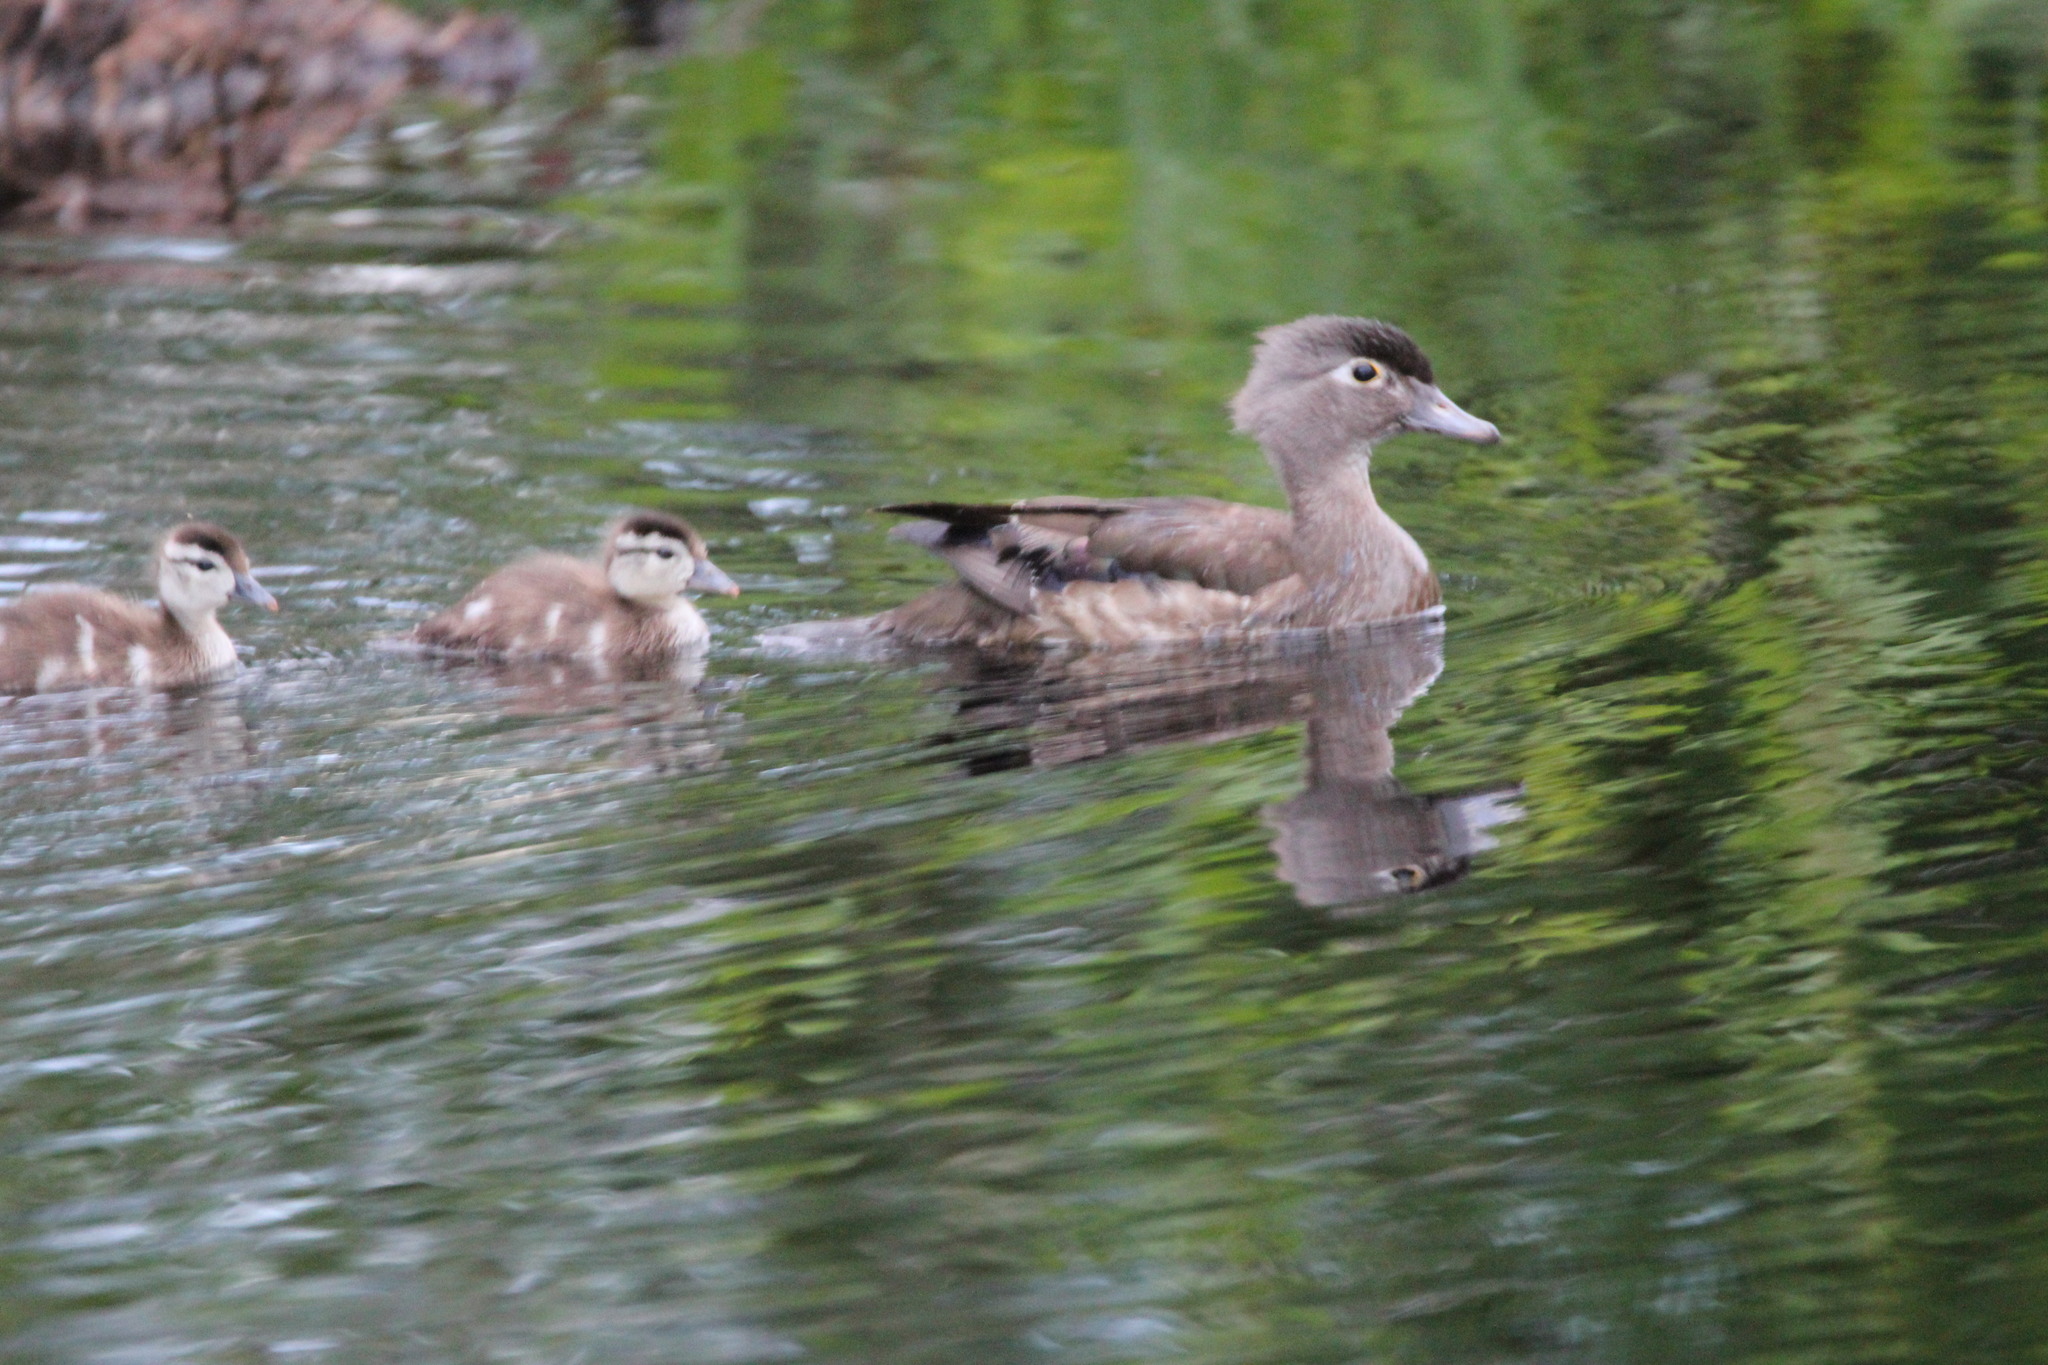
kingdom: Animalia
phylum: Chordata
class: Aves
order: Anseriformes
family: Anatidae
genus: Aix
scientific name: Aix sponsa
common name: Wood duck
